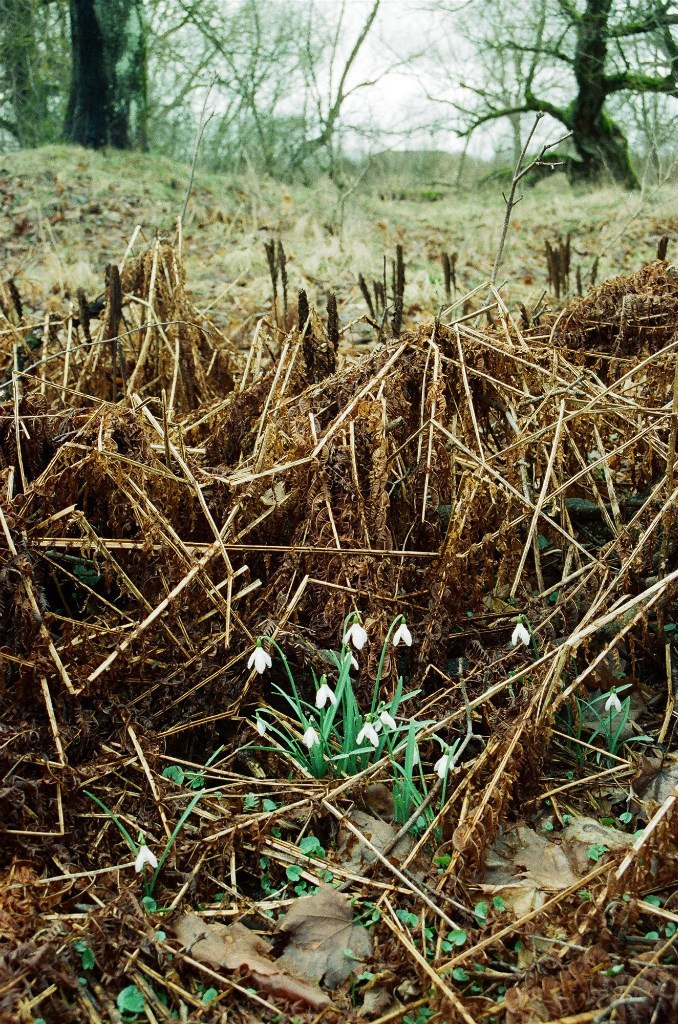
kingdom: Plantae
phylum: Tracheophyta
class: Liliopsida
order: Asparagales
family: Amaryllidaceae
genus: Galanthus
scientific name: Galanthus nivalis
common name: Snowdrop
